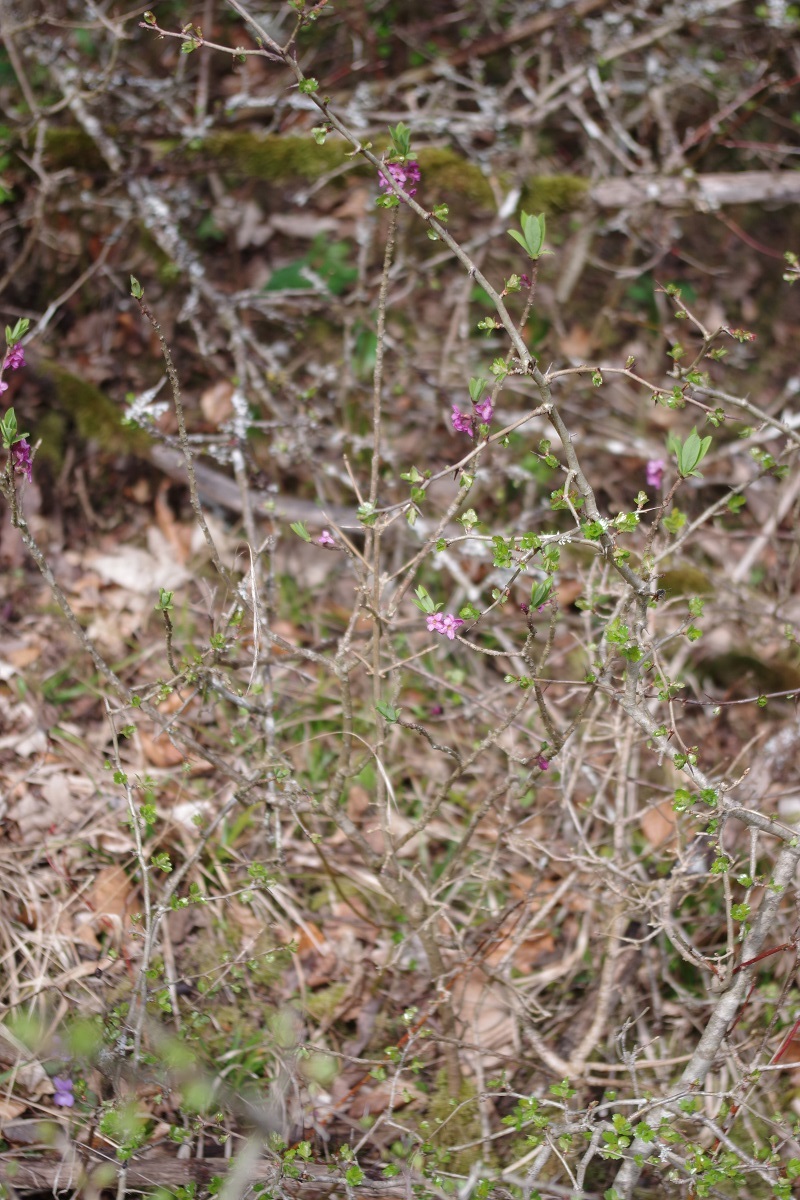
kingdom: Plantae
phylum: Tracheophyta
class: Magnoliopsida
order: Malvales
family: Thymelaeaceae
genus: Daphne
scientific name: Daphne mezereum
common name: Mezereon
